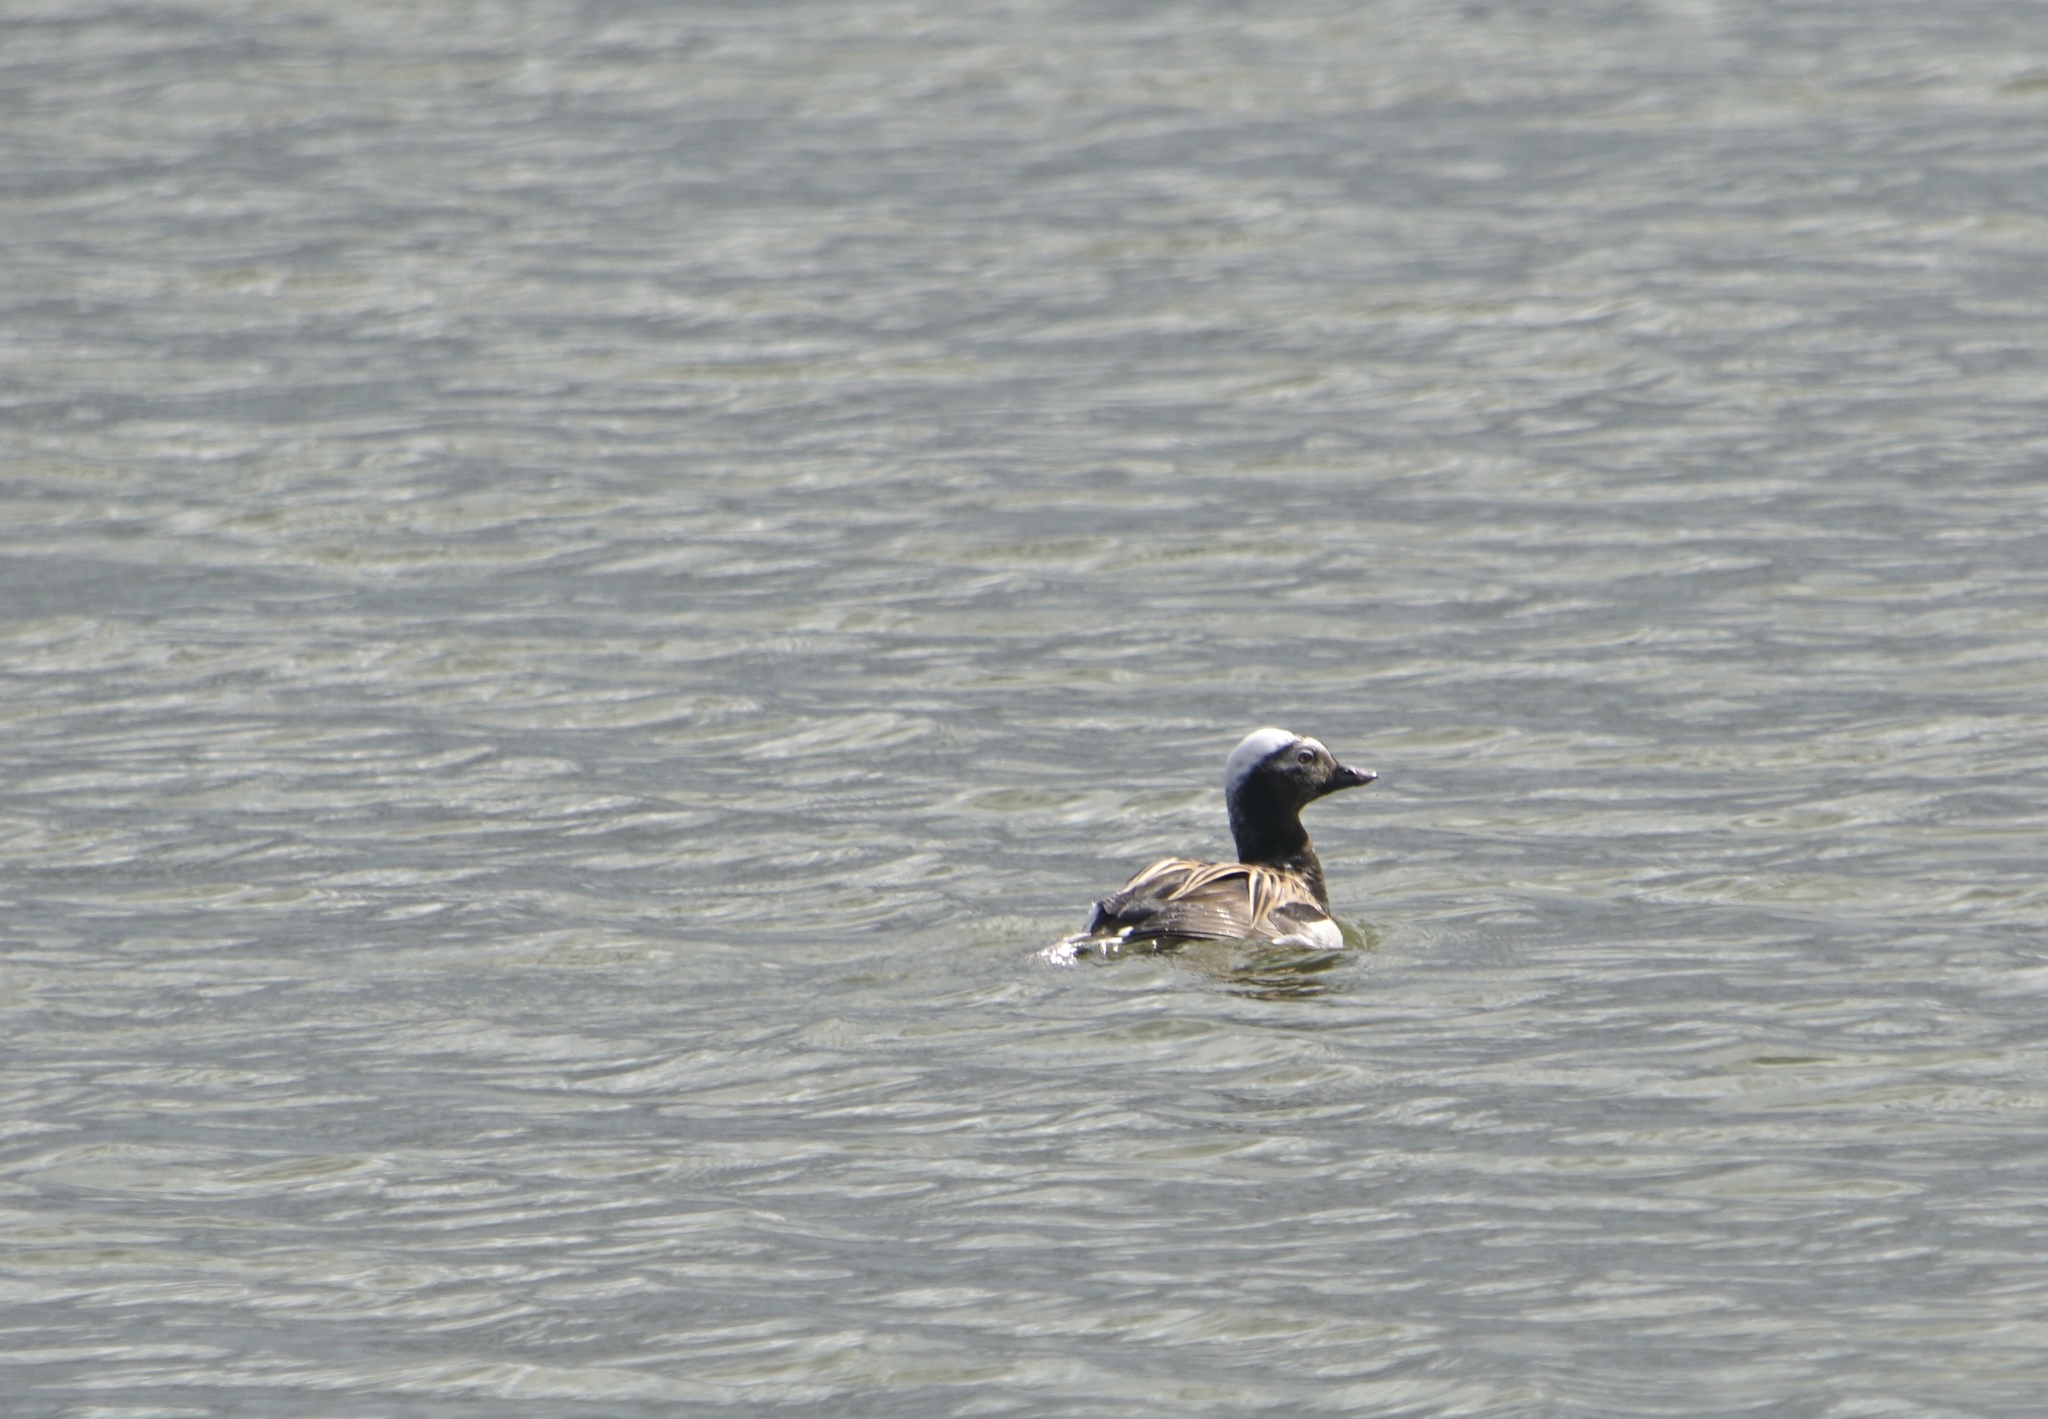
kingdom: Animalia
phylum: Chordata
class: Aves
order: Anseriformes
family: Anatidae
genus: Clangula
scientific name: Clangula hyemalis
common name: Long-tailed duck
